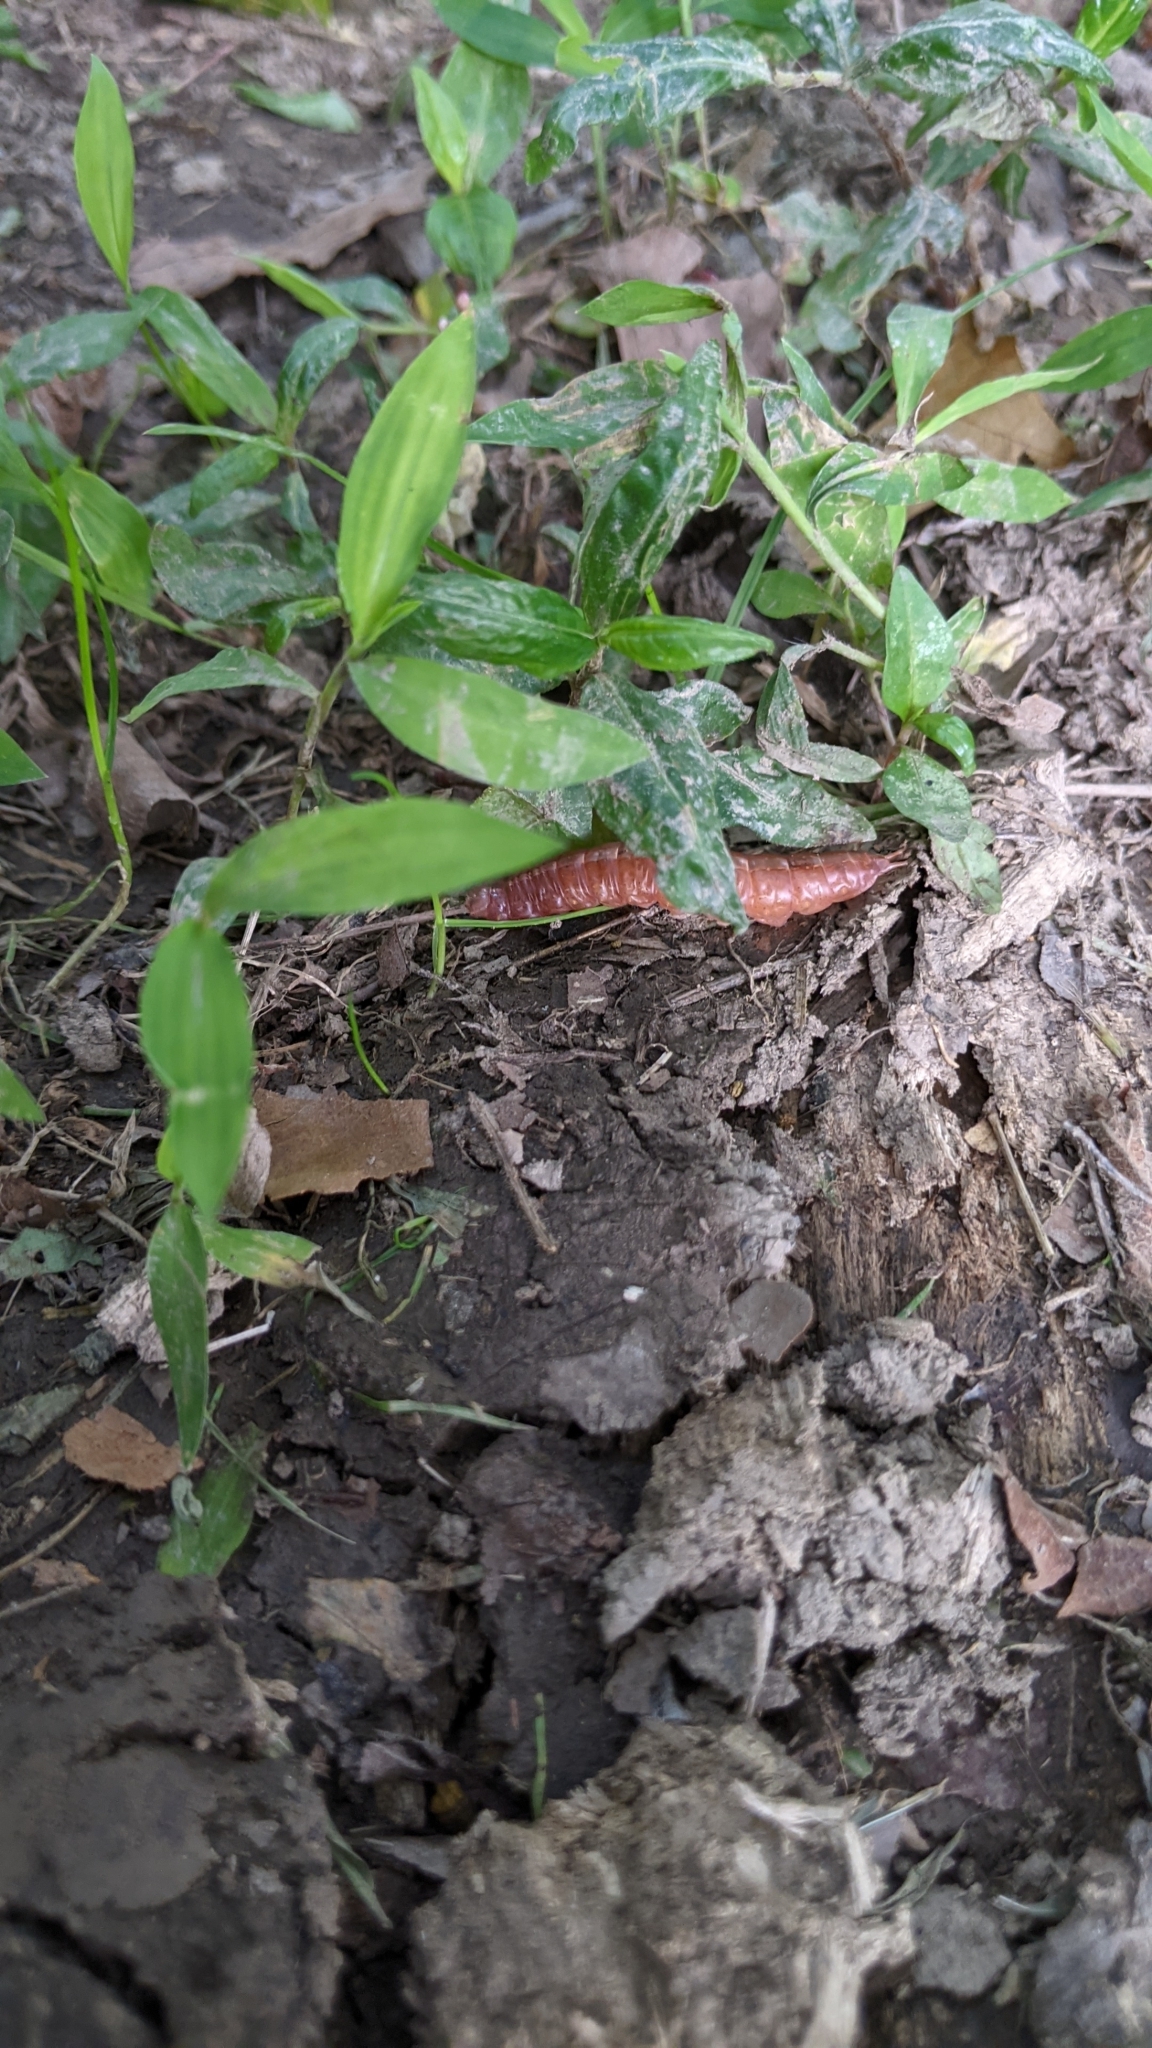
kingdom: Animalia
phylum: Arthropoda
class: Insecta
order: Lepidoptera
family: Notodontidae
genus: Misogada
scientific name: Misogada unicolor
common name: Drab prominent
